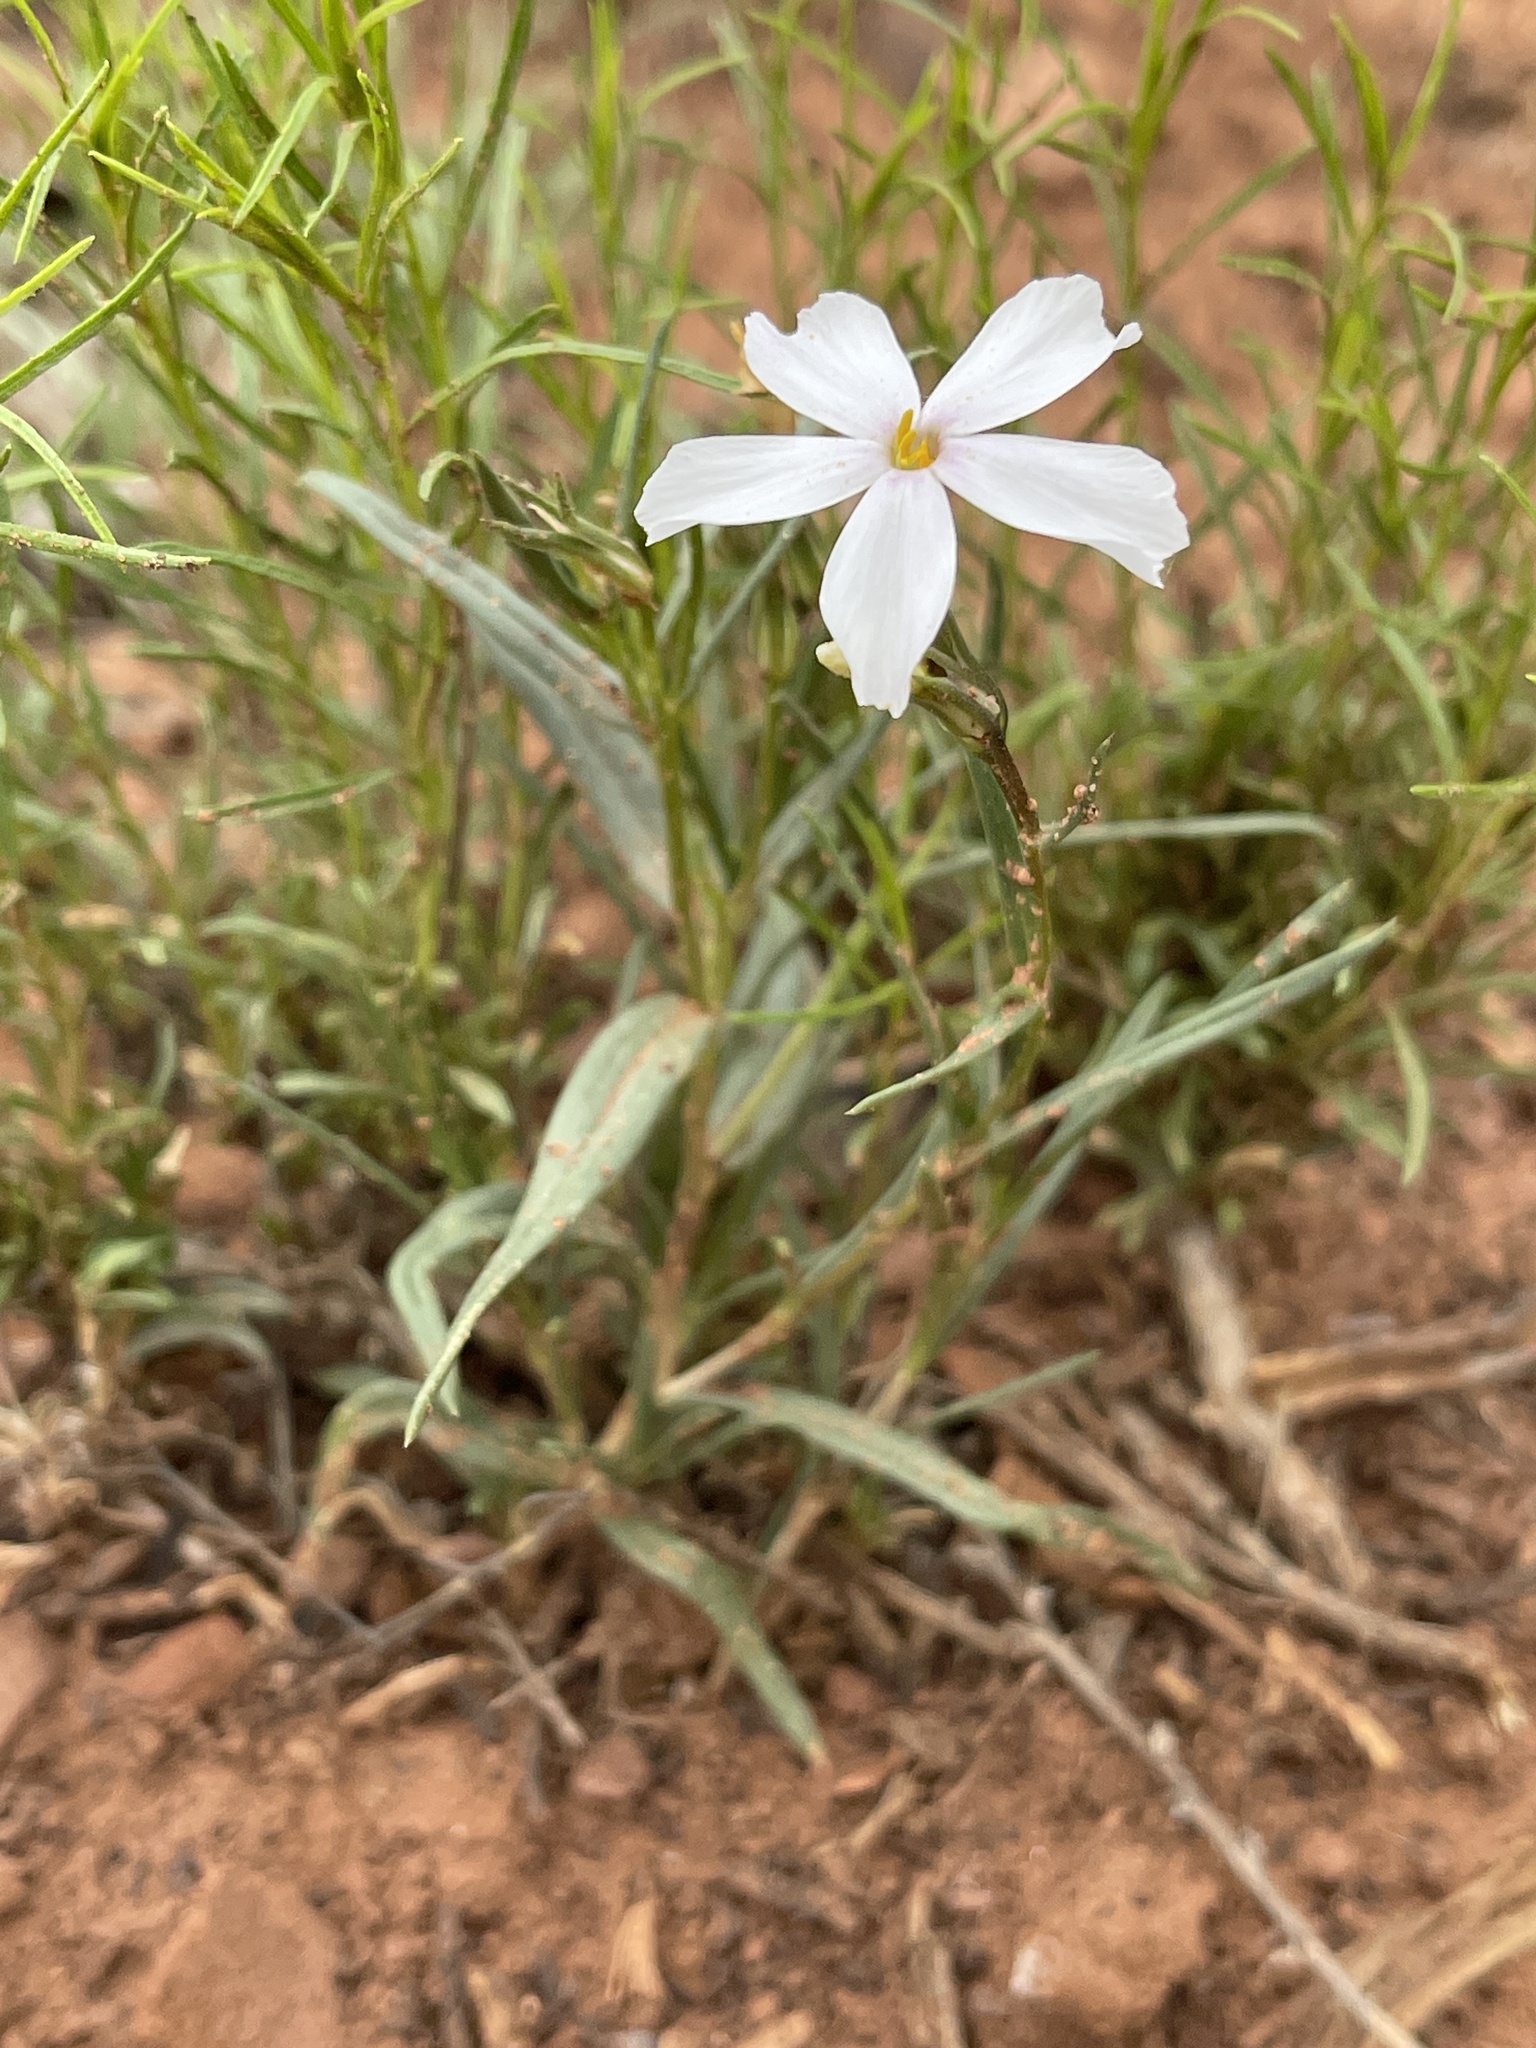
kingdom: Plantae
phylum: Tracheophyta
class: Magnoliopsida
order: Ericales
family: Polemoniaceae
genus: Phlox
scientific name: Phlox longifolia
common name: Longleaf phlox
